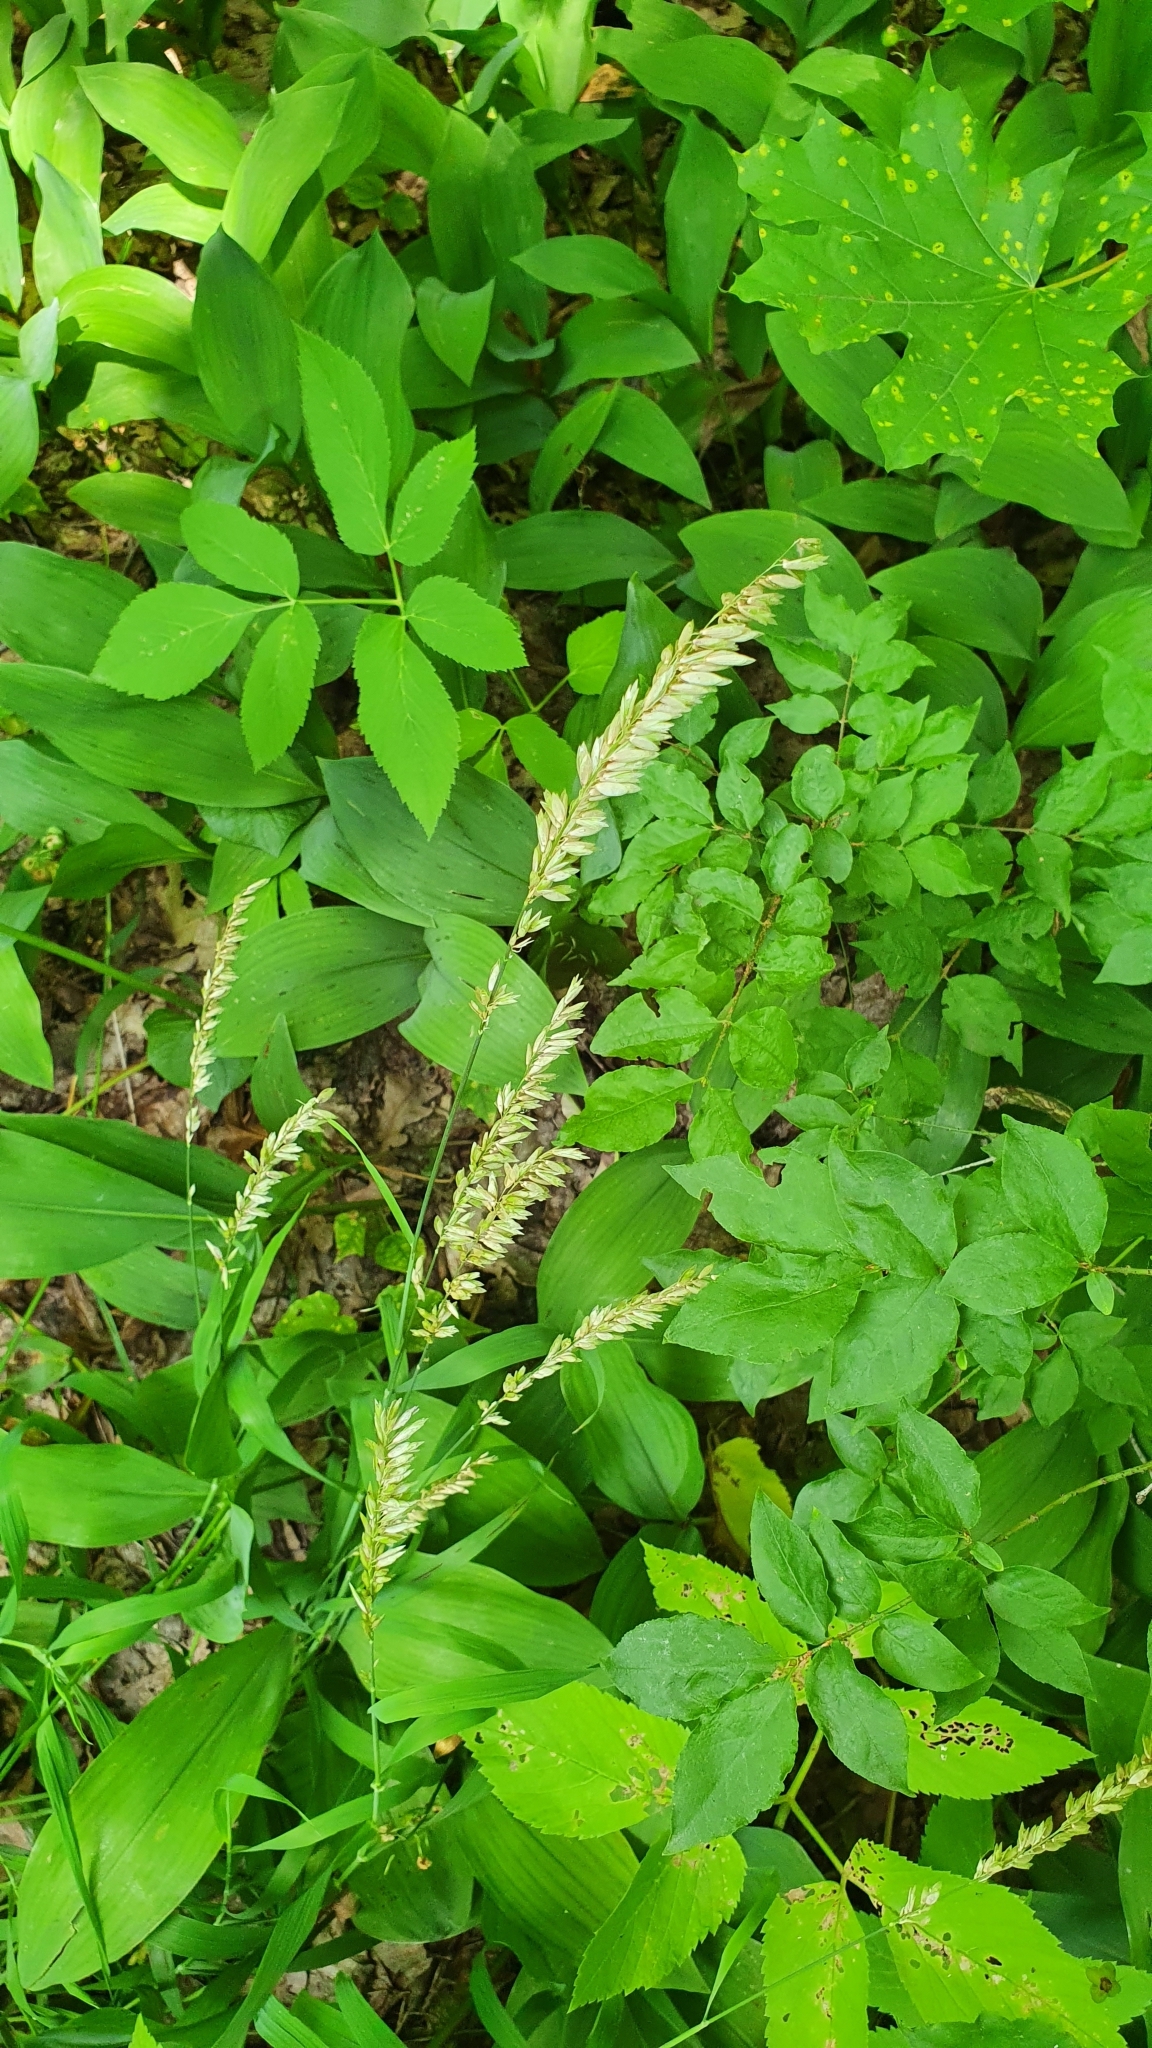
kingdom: Plantae
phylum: Tracheophyta
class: Liliopsida
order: Poales
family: Poaceae
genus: Melica
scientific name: Melica altissima
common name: Siberian melicgrass
